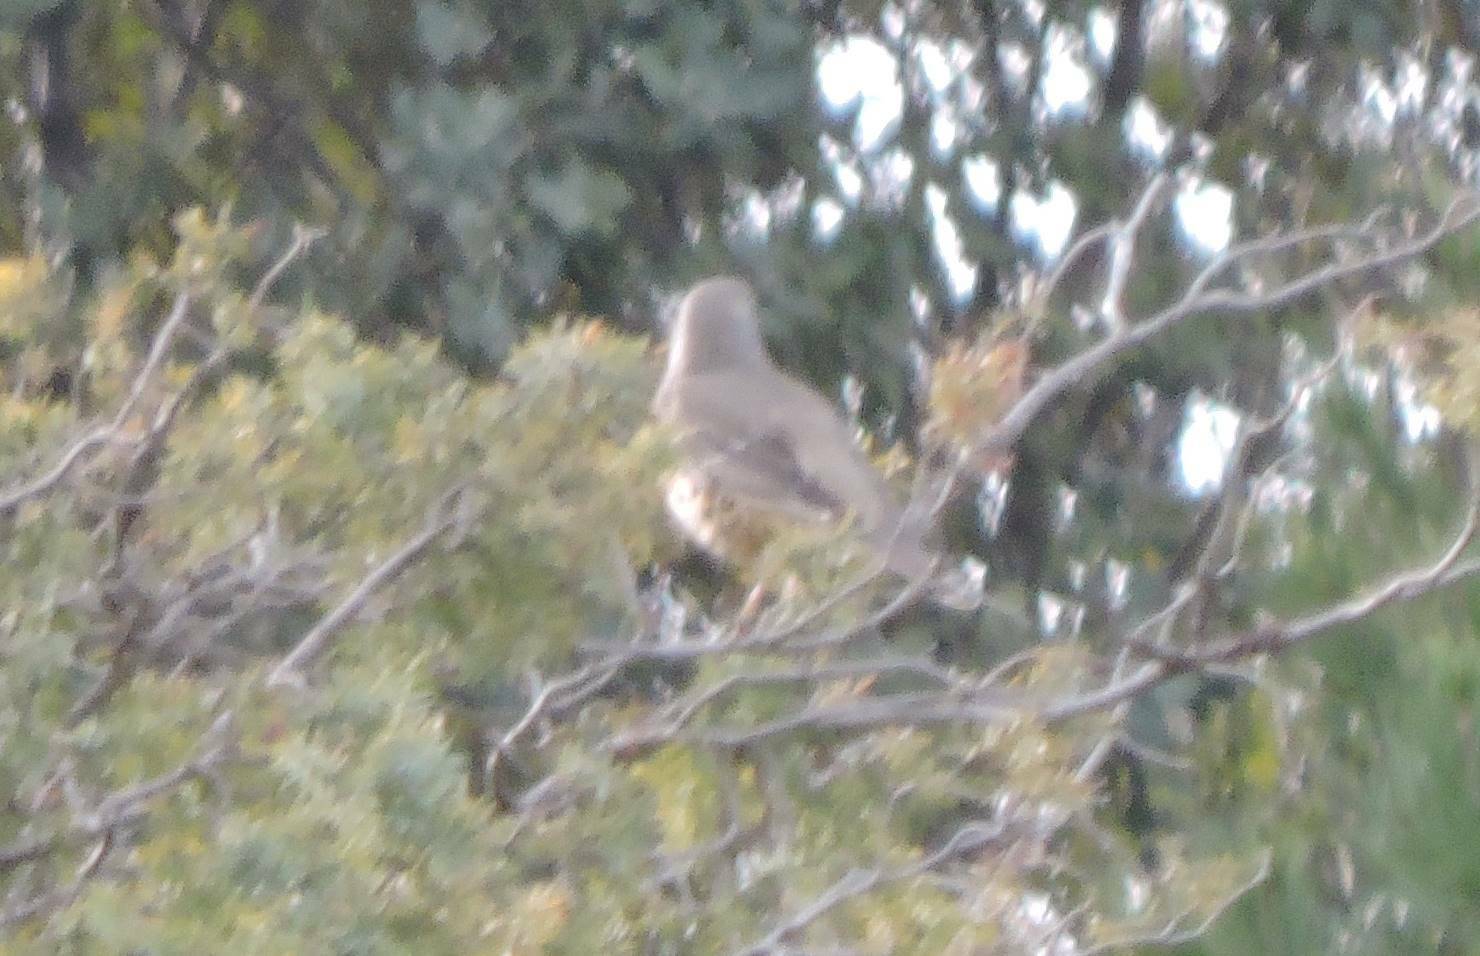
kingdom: Animalia
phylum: Chordata
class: Aves
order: Passeriformes
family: Turdidae
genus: Turdus
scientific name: Turdus viscivorus
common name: Mistle thrush
